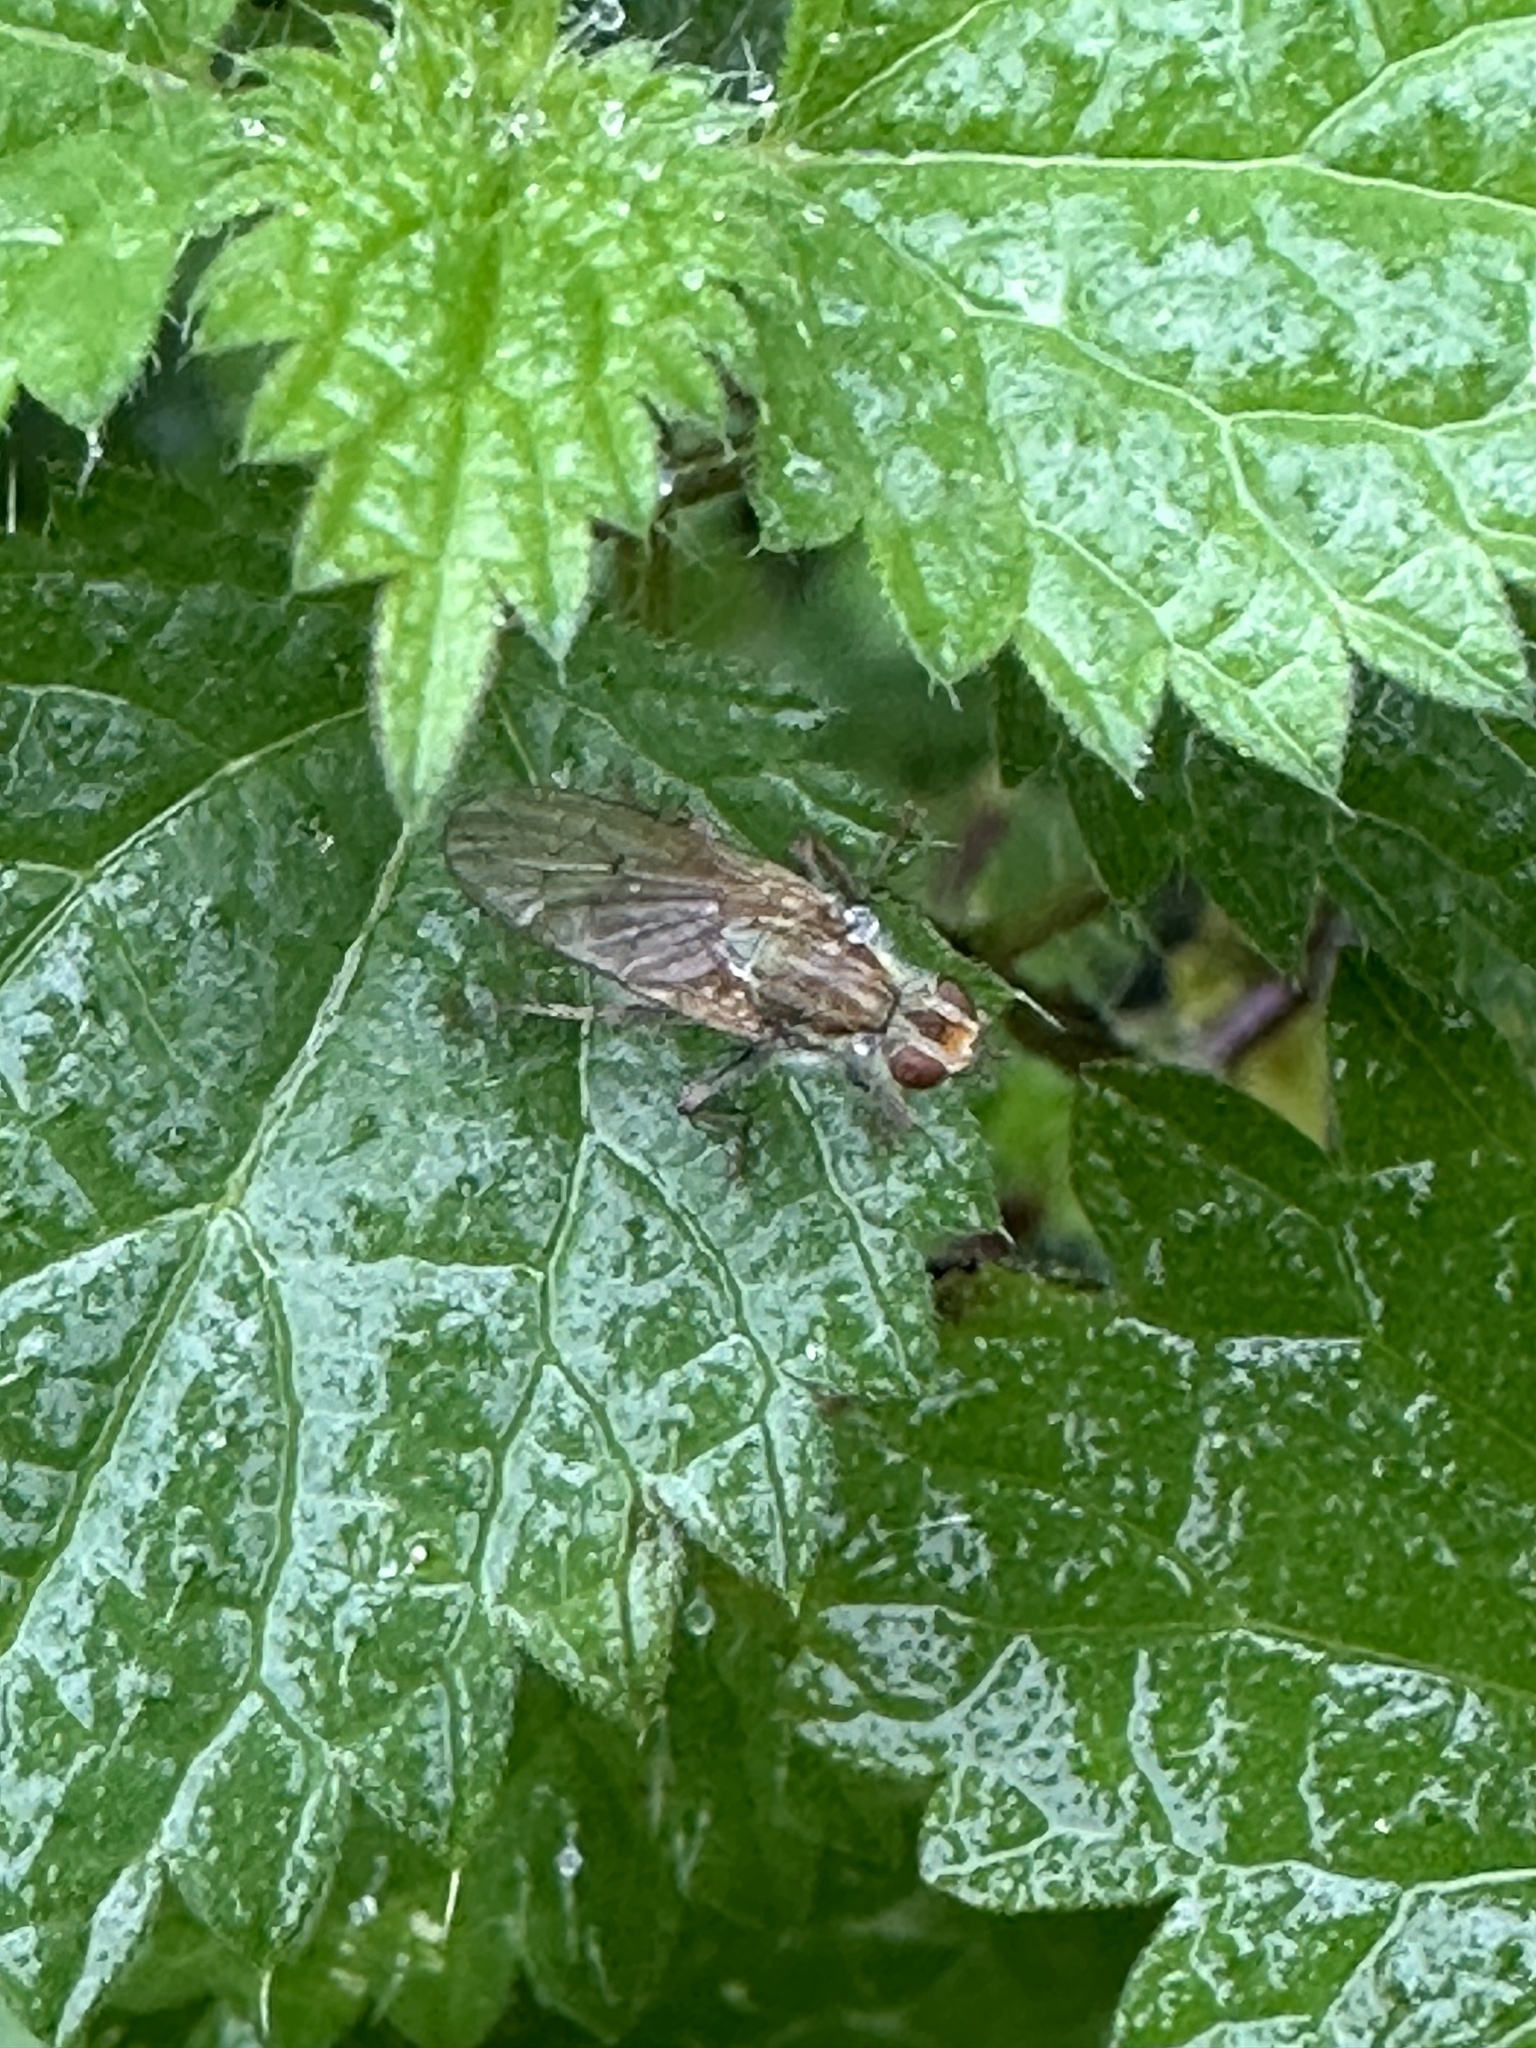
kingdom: Animalia
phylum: Arthropoda
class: Insecta
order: Diptera
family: Scathophagidae
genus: Scathophaga
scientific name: Scathophaga stercoraria
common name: Yellow dung fly
